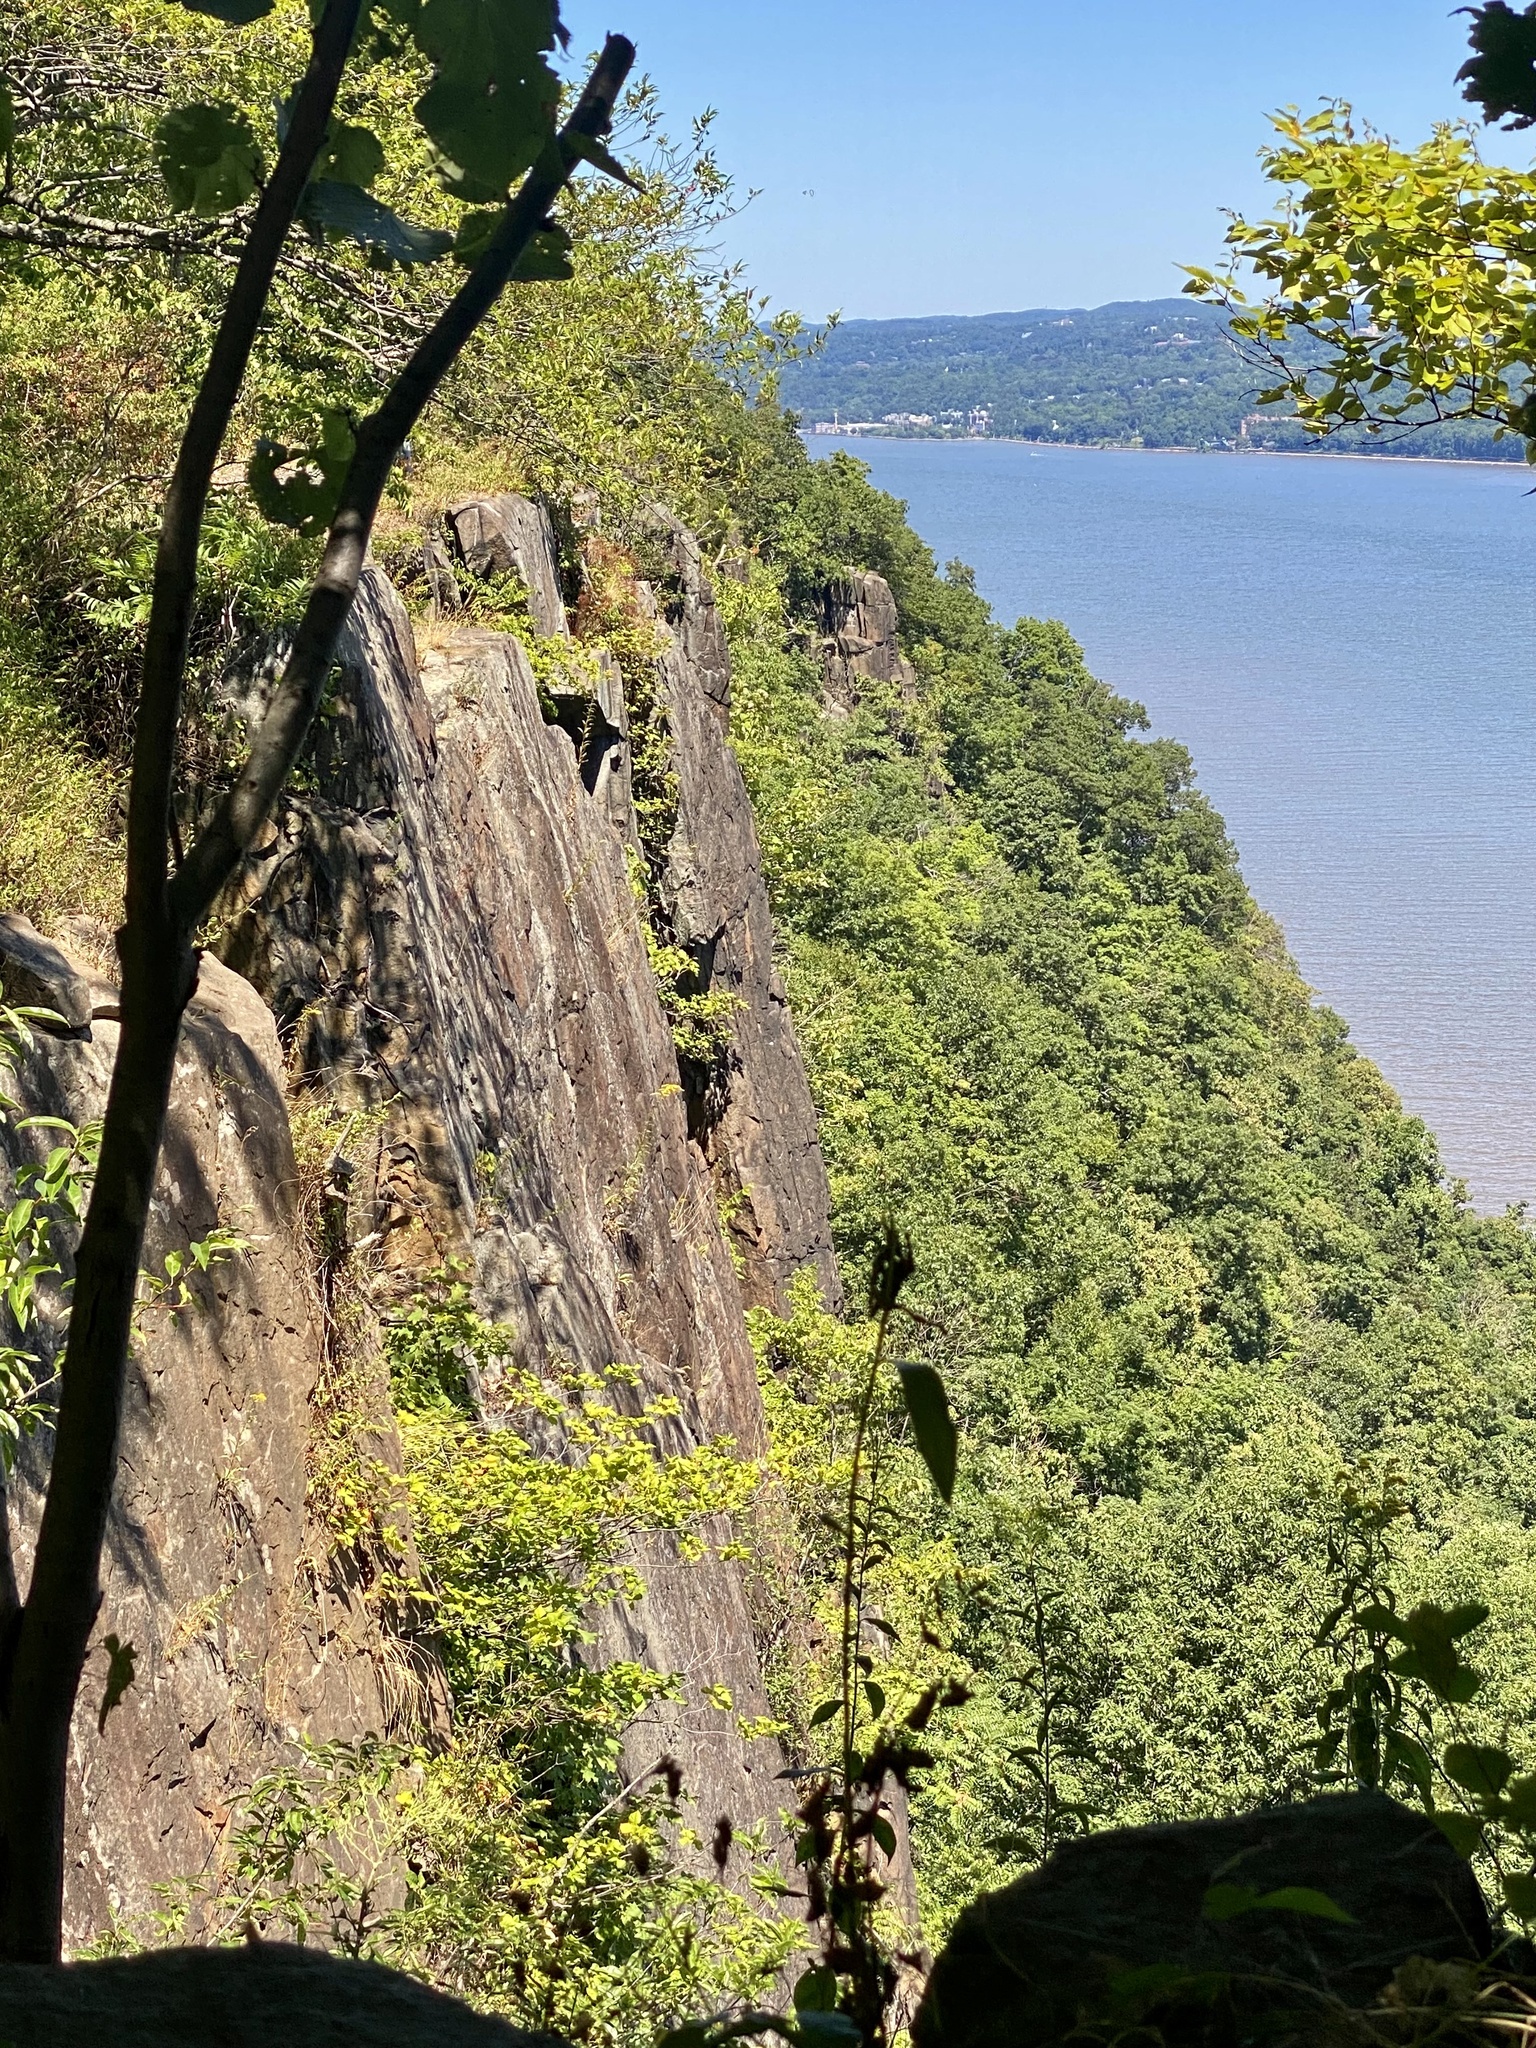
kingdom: Animalia
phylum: Chordata
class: Aves
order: Accipitriformes
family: Cathartidae
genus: Cathartes
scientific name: Cathartes aura
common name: Turkey vulture
